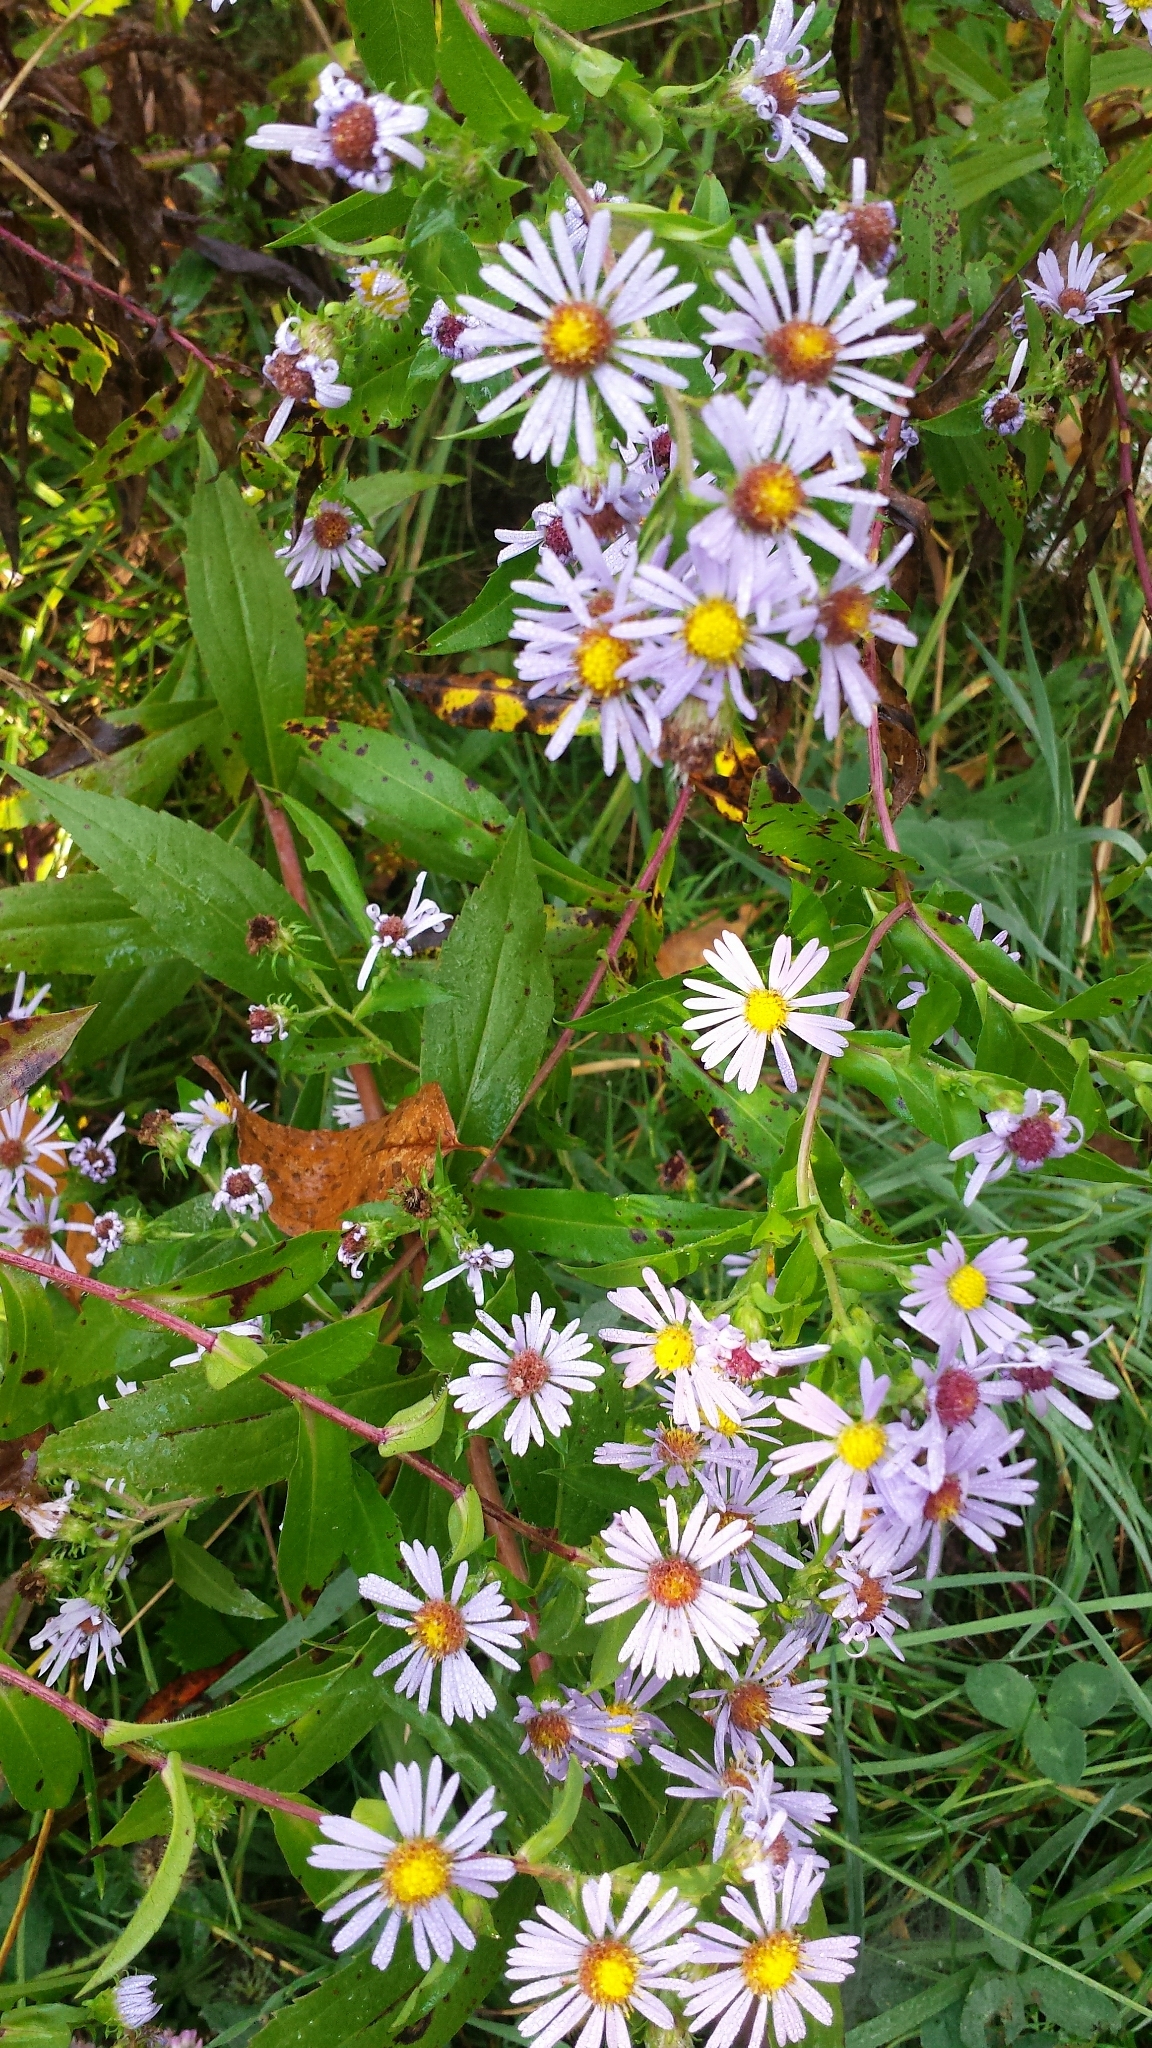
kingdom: Plantae
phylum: Tracheophyta
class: Magnoliopsida
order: Asterales
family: Asteraceae
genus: Symphyotrichum
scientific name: Symphyotrichum puniceum
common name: Bog aster
